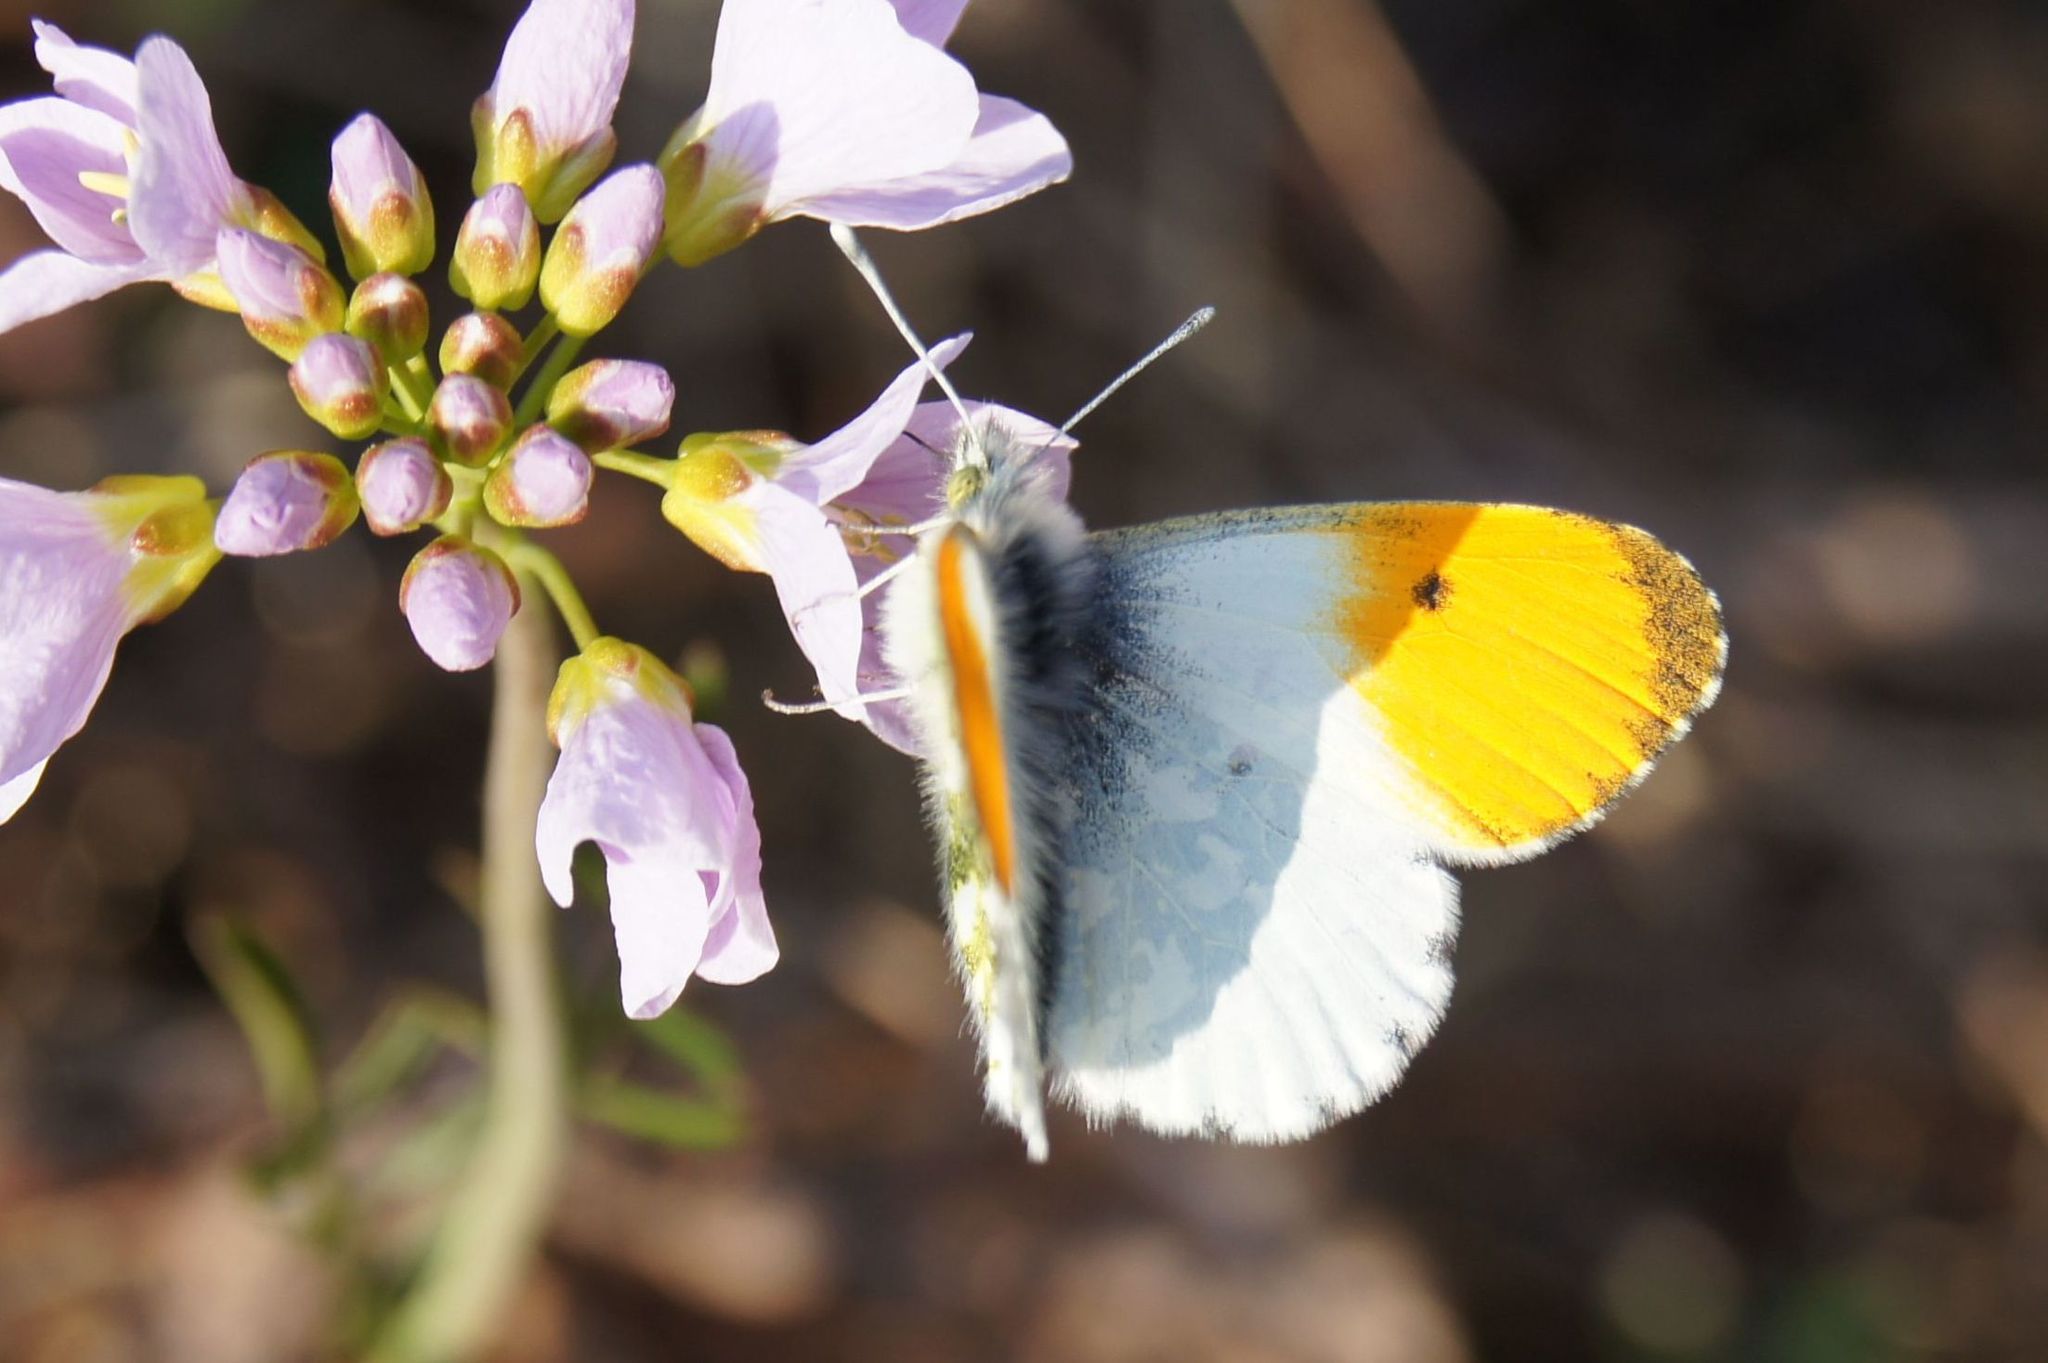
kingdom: Animalia
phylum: Arthropoda
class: Insecta
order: Lepidoptera
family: Pieridae
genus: Anthocharis
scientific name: Anthocharis cardamines
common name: Orange-tip
